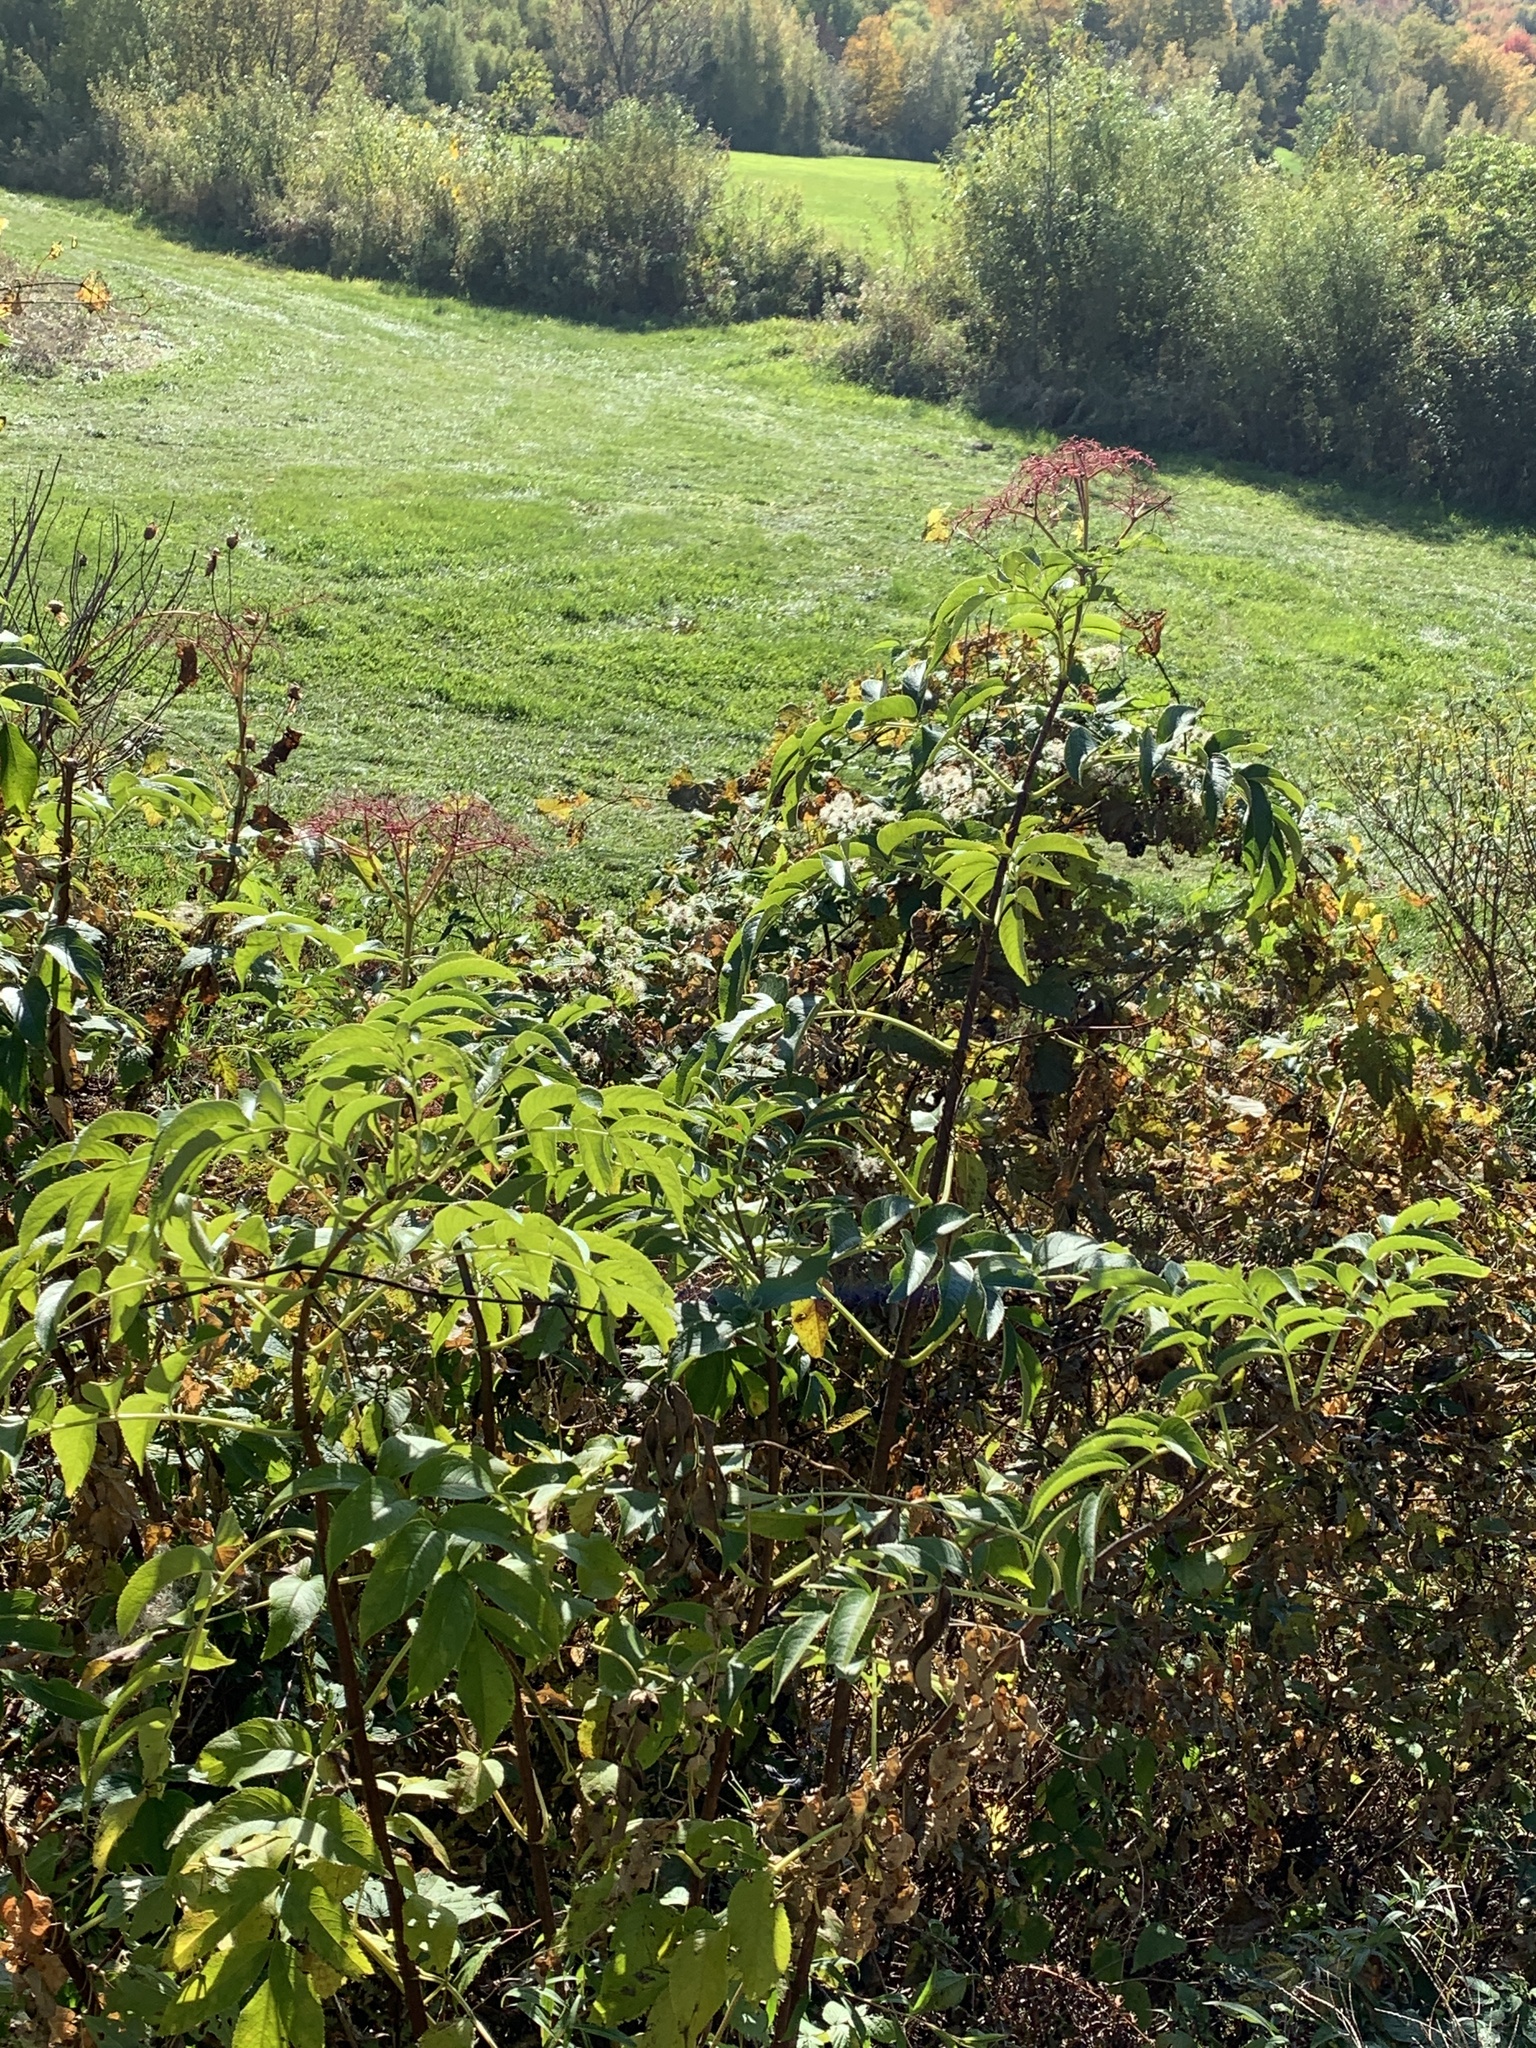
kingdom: Plantae
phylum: Tracheophyta
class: Magnoliopsida
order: Dipsacales
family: Viburnaceae
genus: Sambucus
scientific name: Sambucus canadensis
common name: American elder
